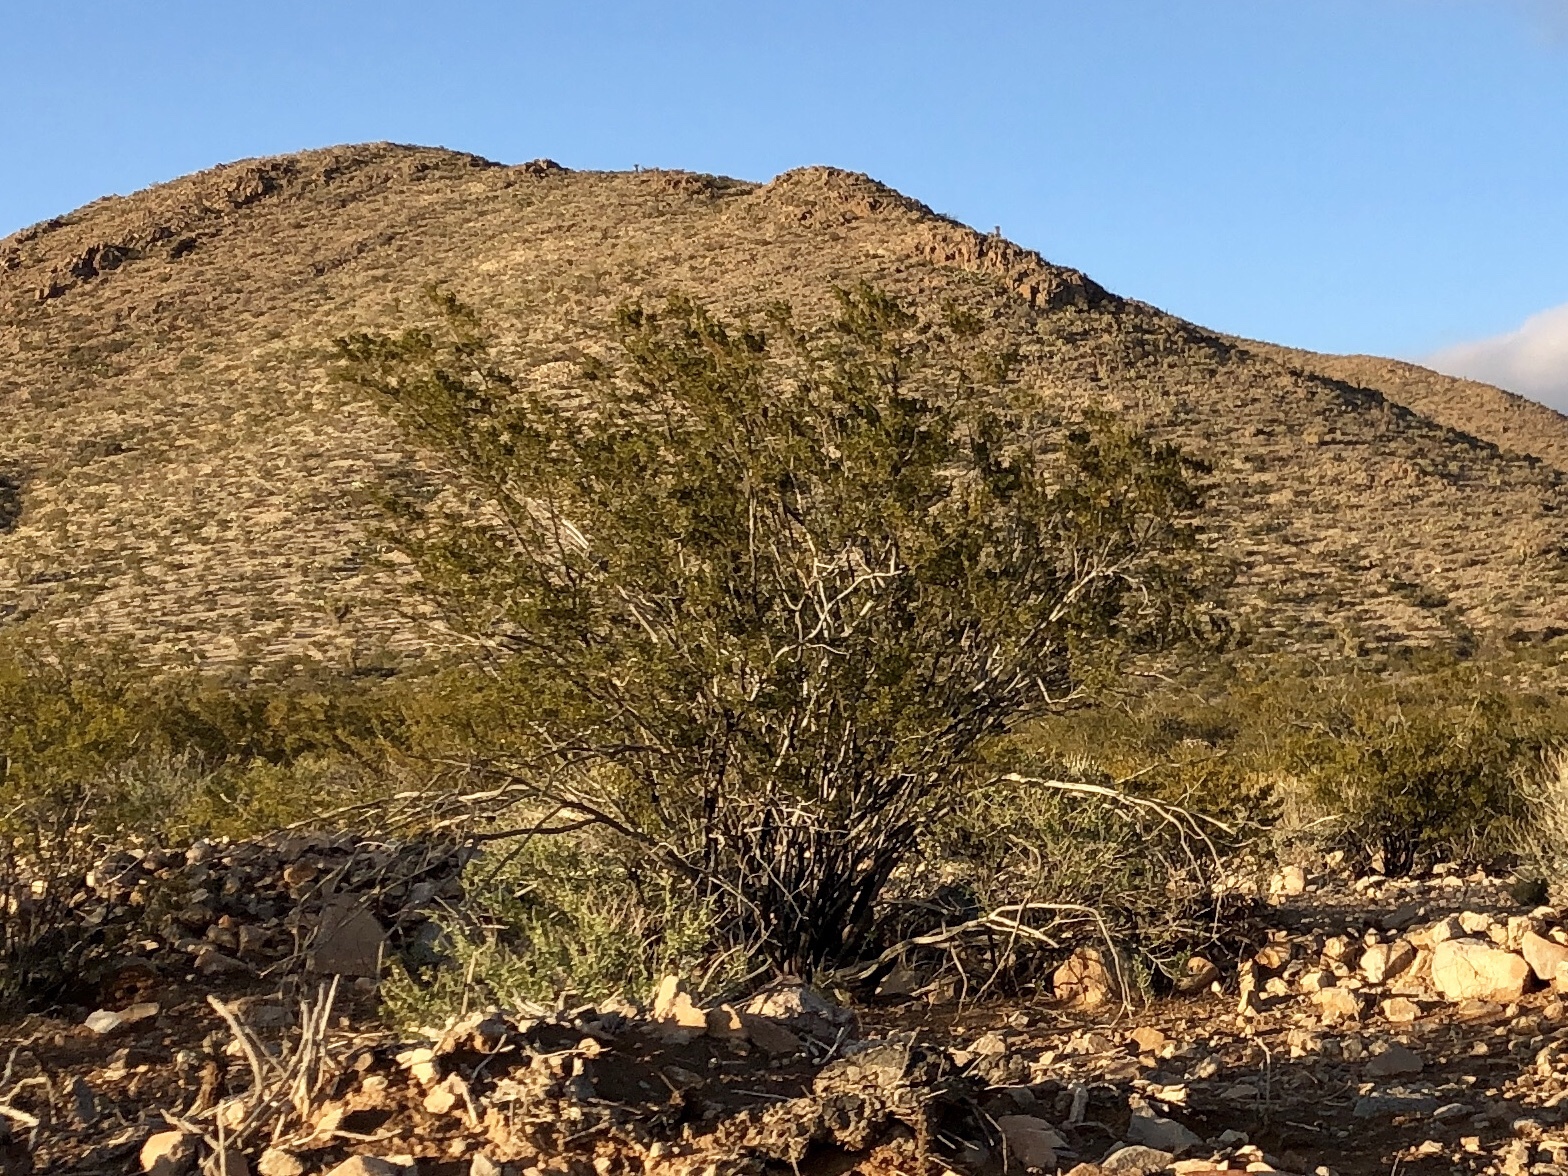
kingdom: Plantae
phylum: Tracheophyta
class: Magnoliopsida
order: Zygophyllales
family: Zygophyllaceae
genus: Larrea
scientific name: Larrea tridentata
